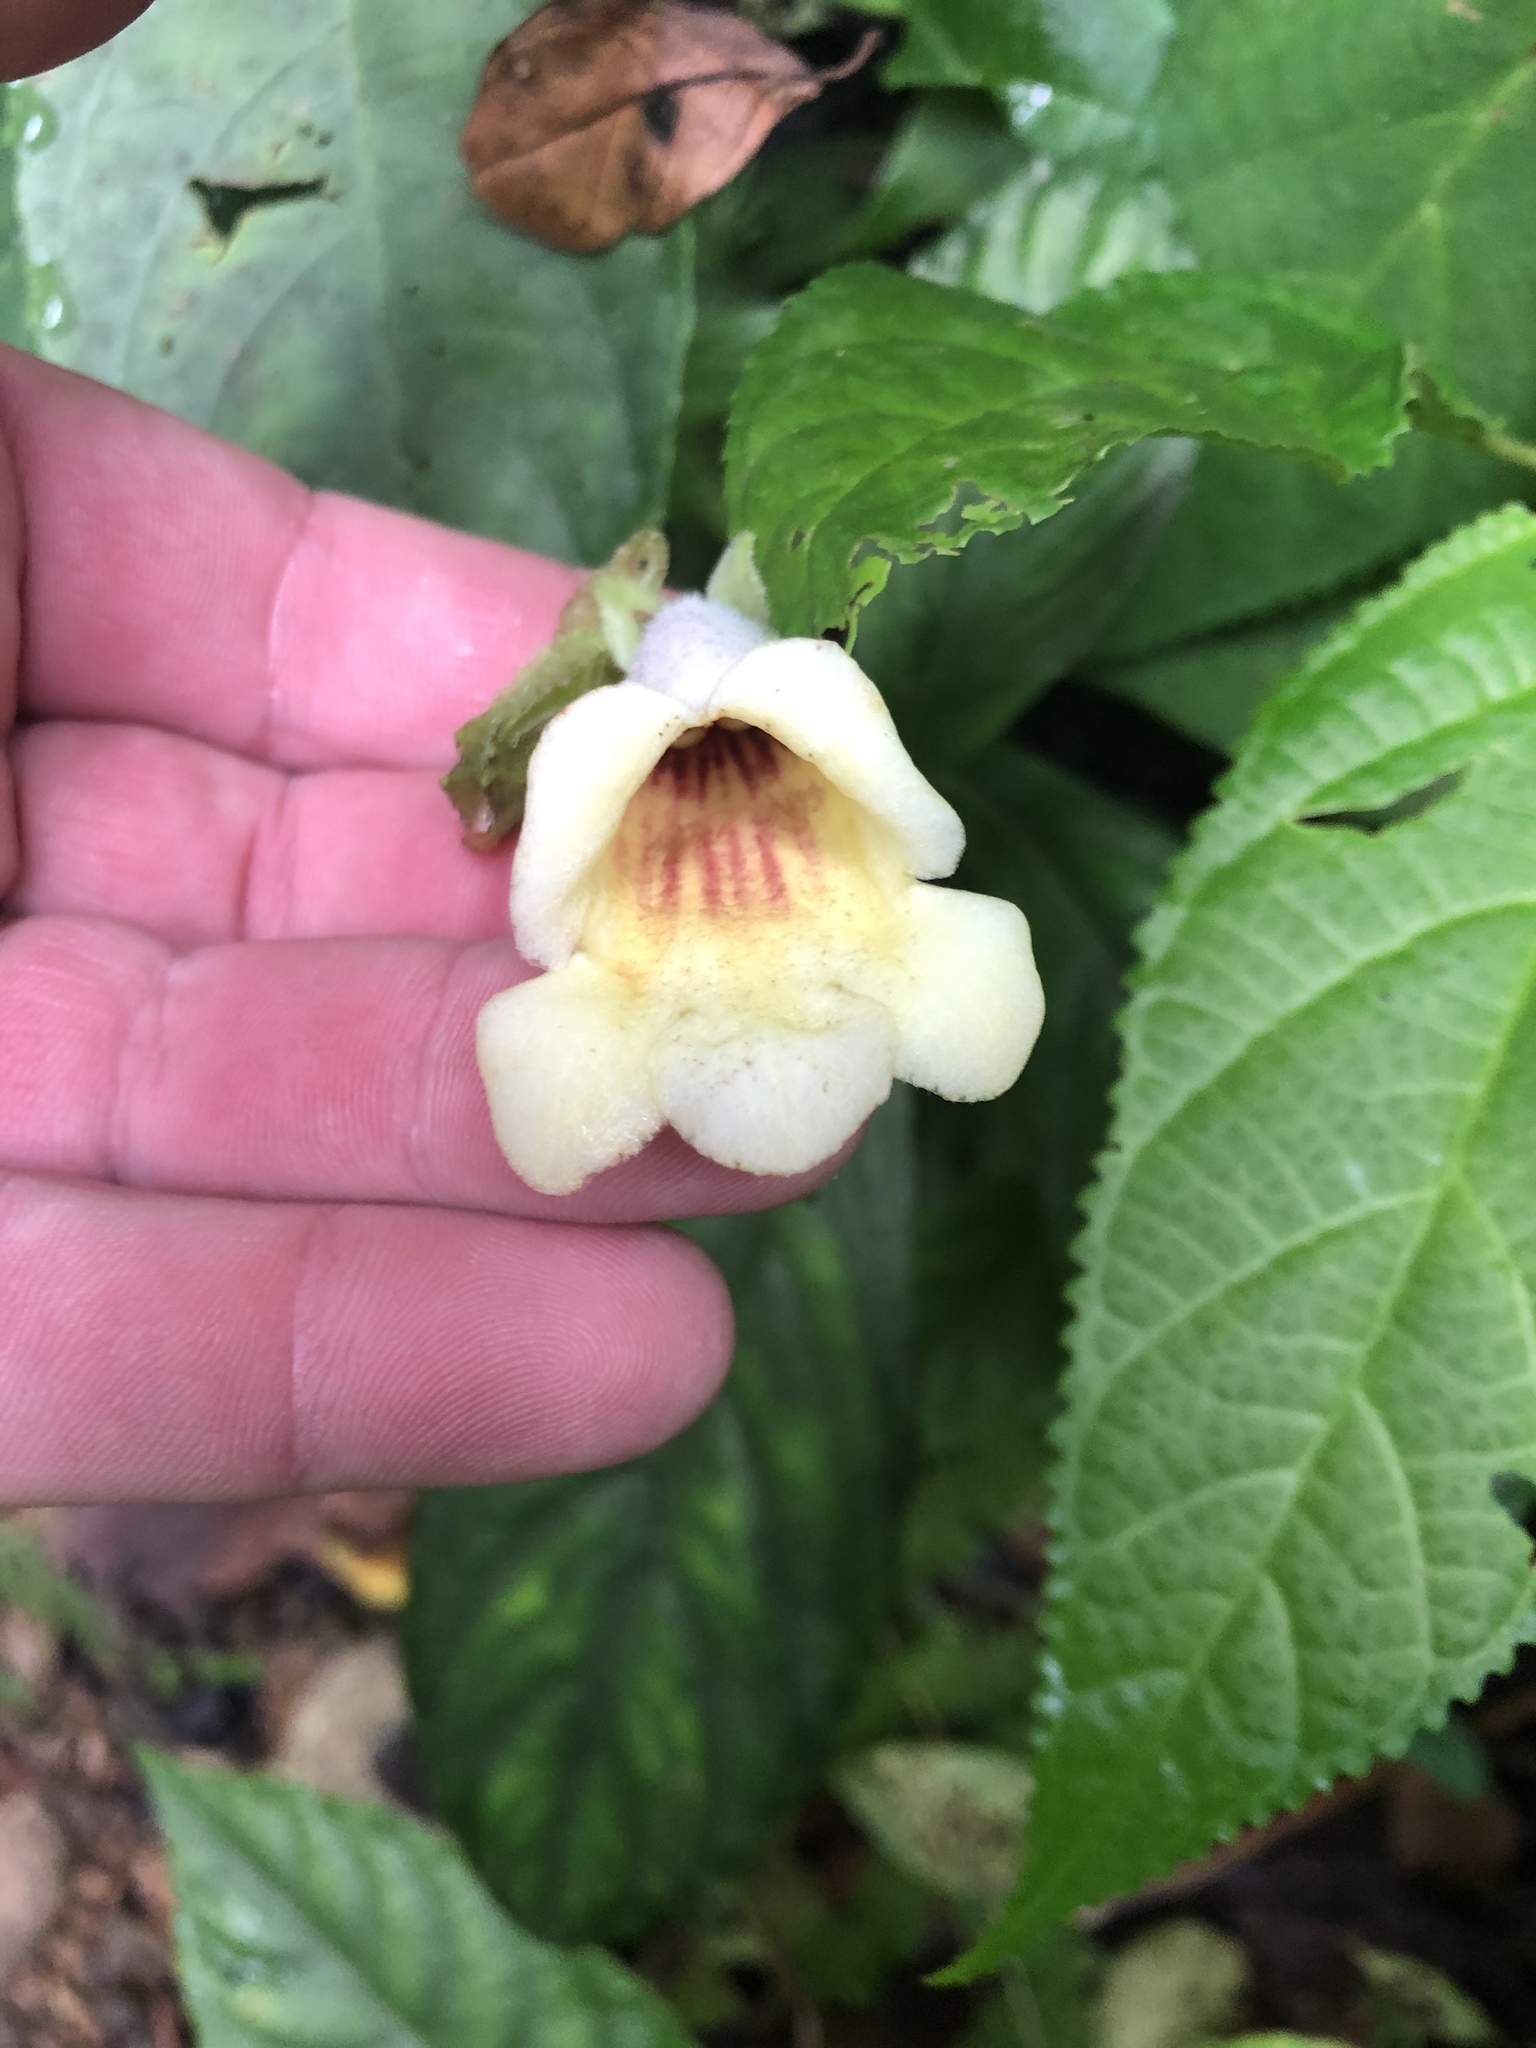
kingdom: Plantae
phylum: Tracheophyta
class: Magnoliopsida
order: Lamiales
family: Gesneriaceae
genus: Gasteranthus
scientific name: Gasteranthus delphinioides
